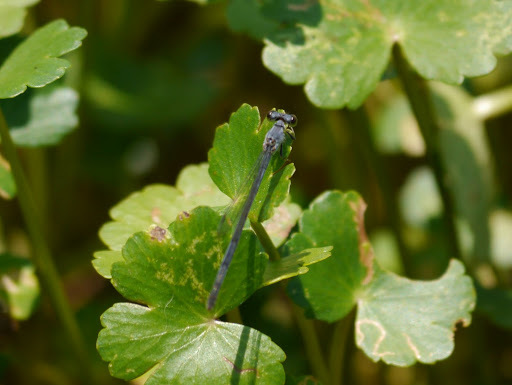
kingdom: Animalia
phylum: Arthropoda
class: Insecta
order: Odonata
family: Coenagrionidae
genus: Ischnura
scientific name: Ischnura posita
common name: Fragile forktail
